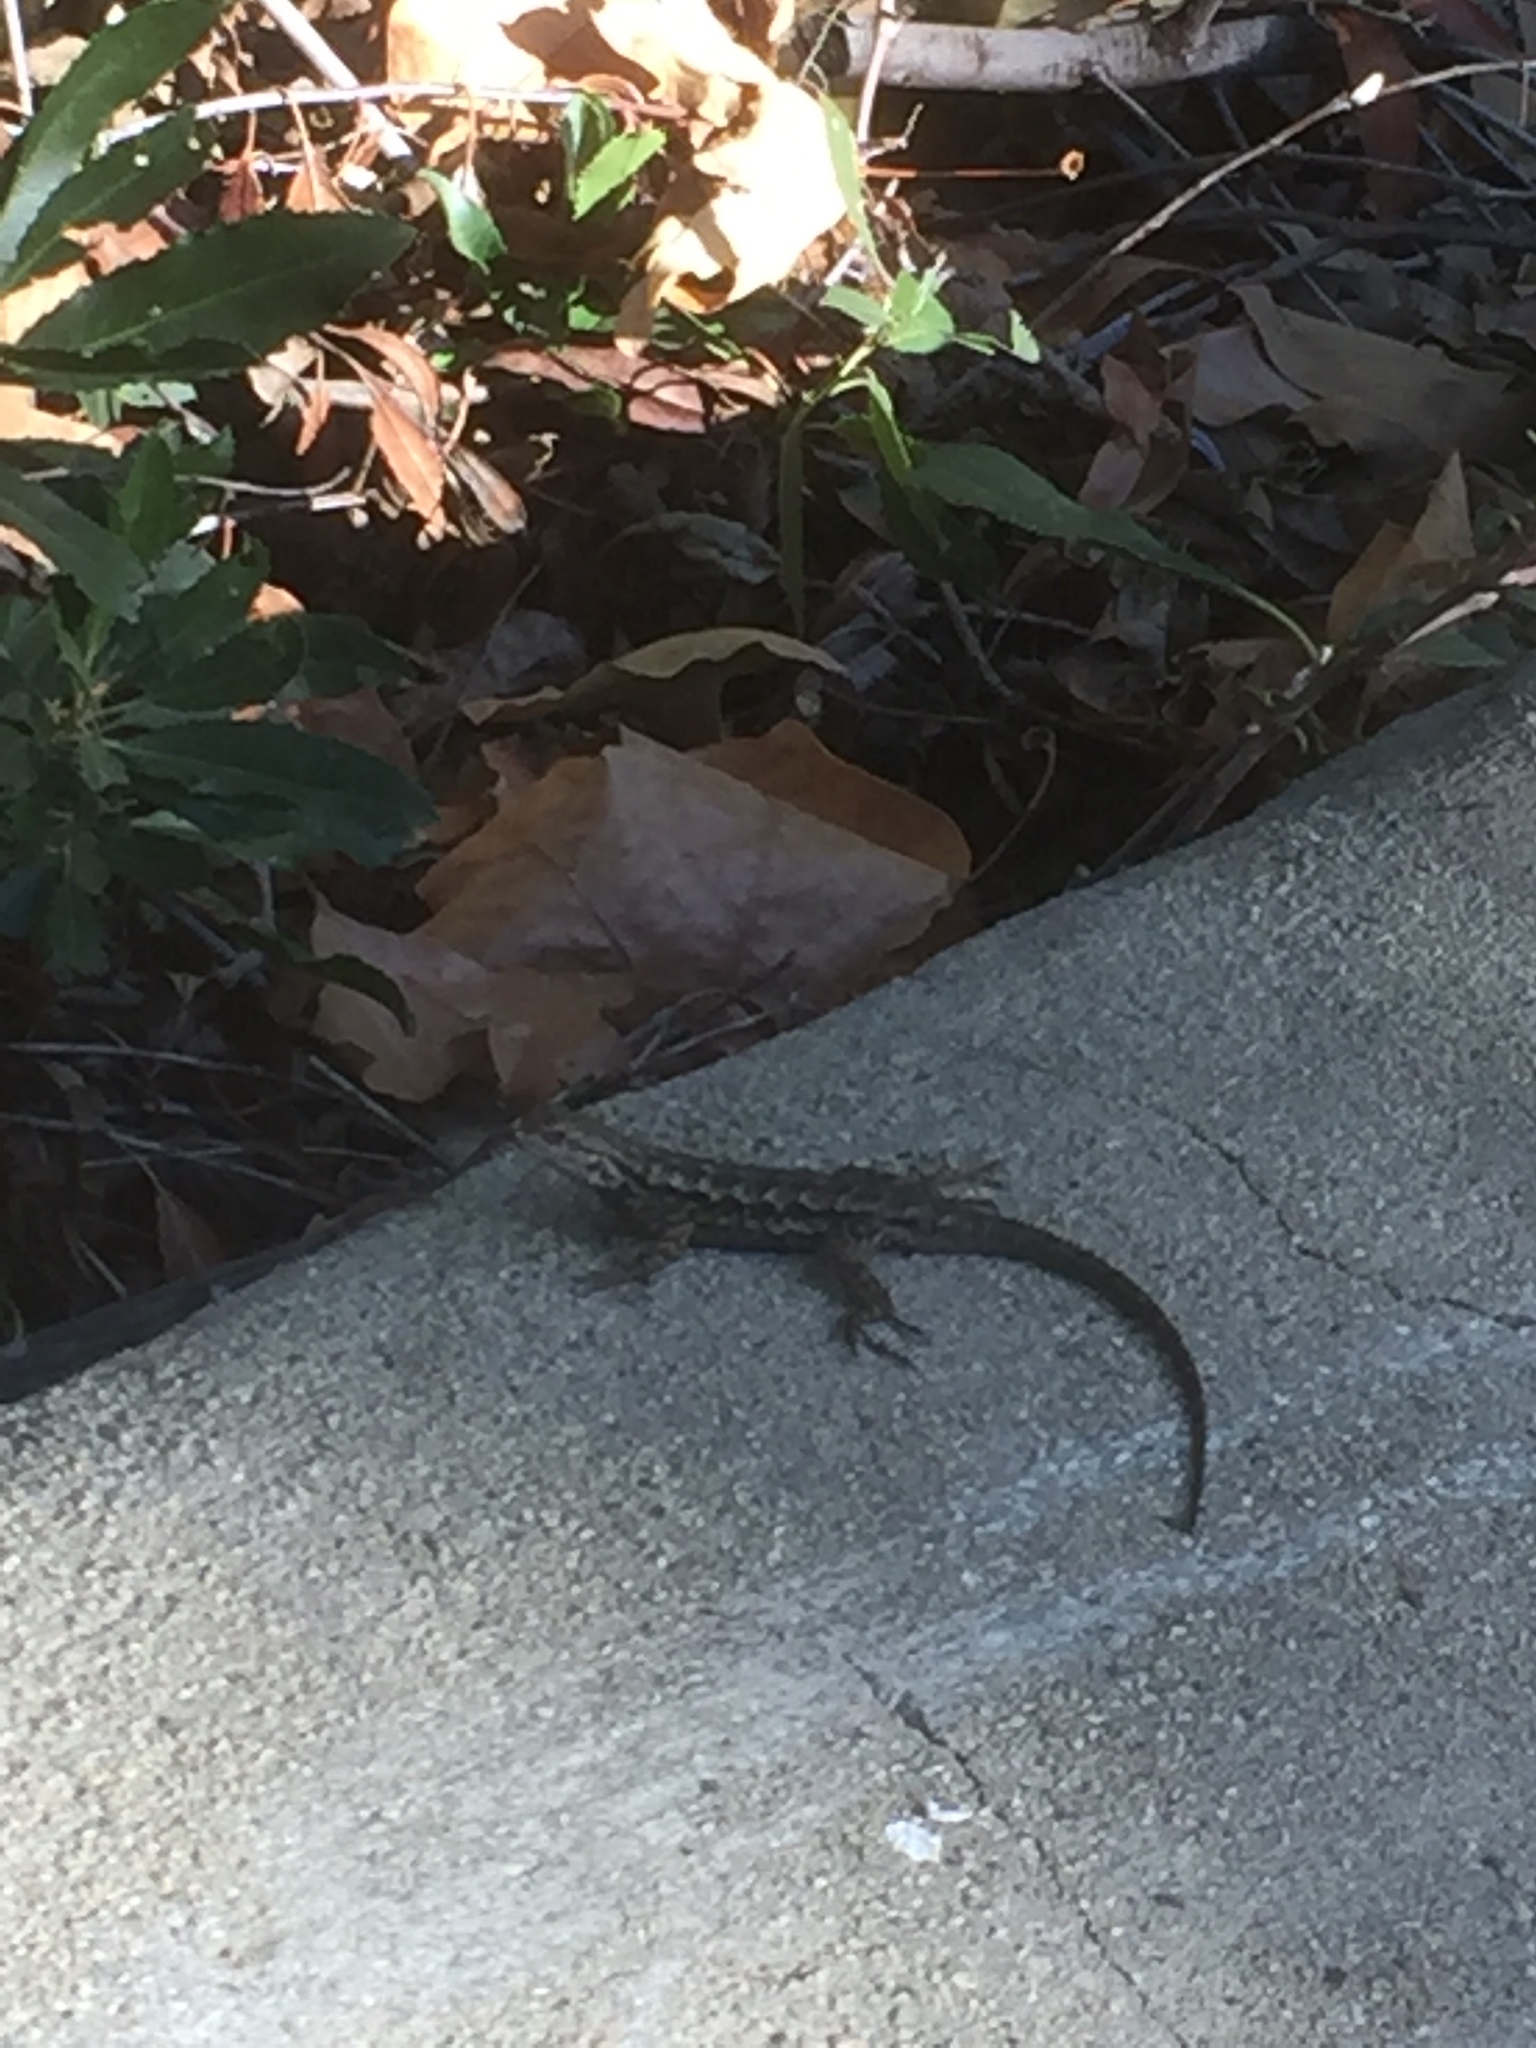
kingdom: Animalia
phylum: Chordata
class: Squamata
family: Phrynosomatidae
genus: Sceloporus
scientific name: Sceloporus occidentalis
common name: Western fence lizard
